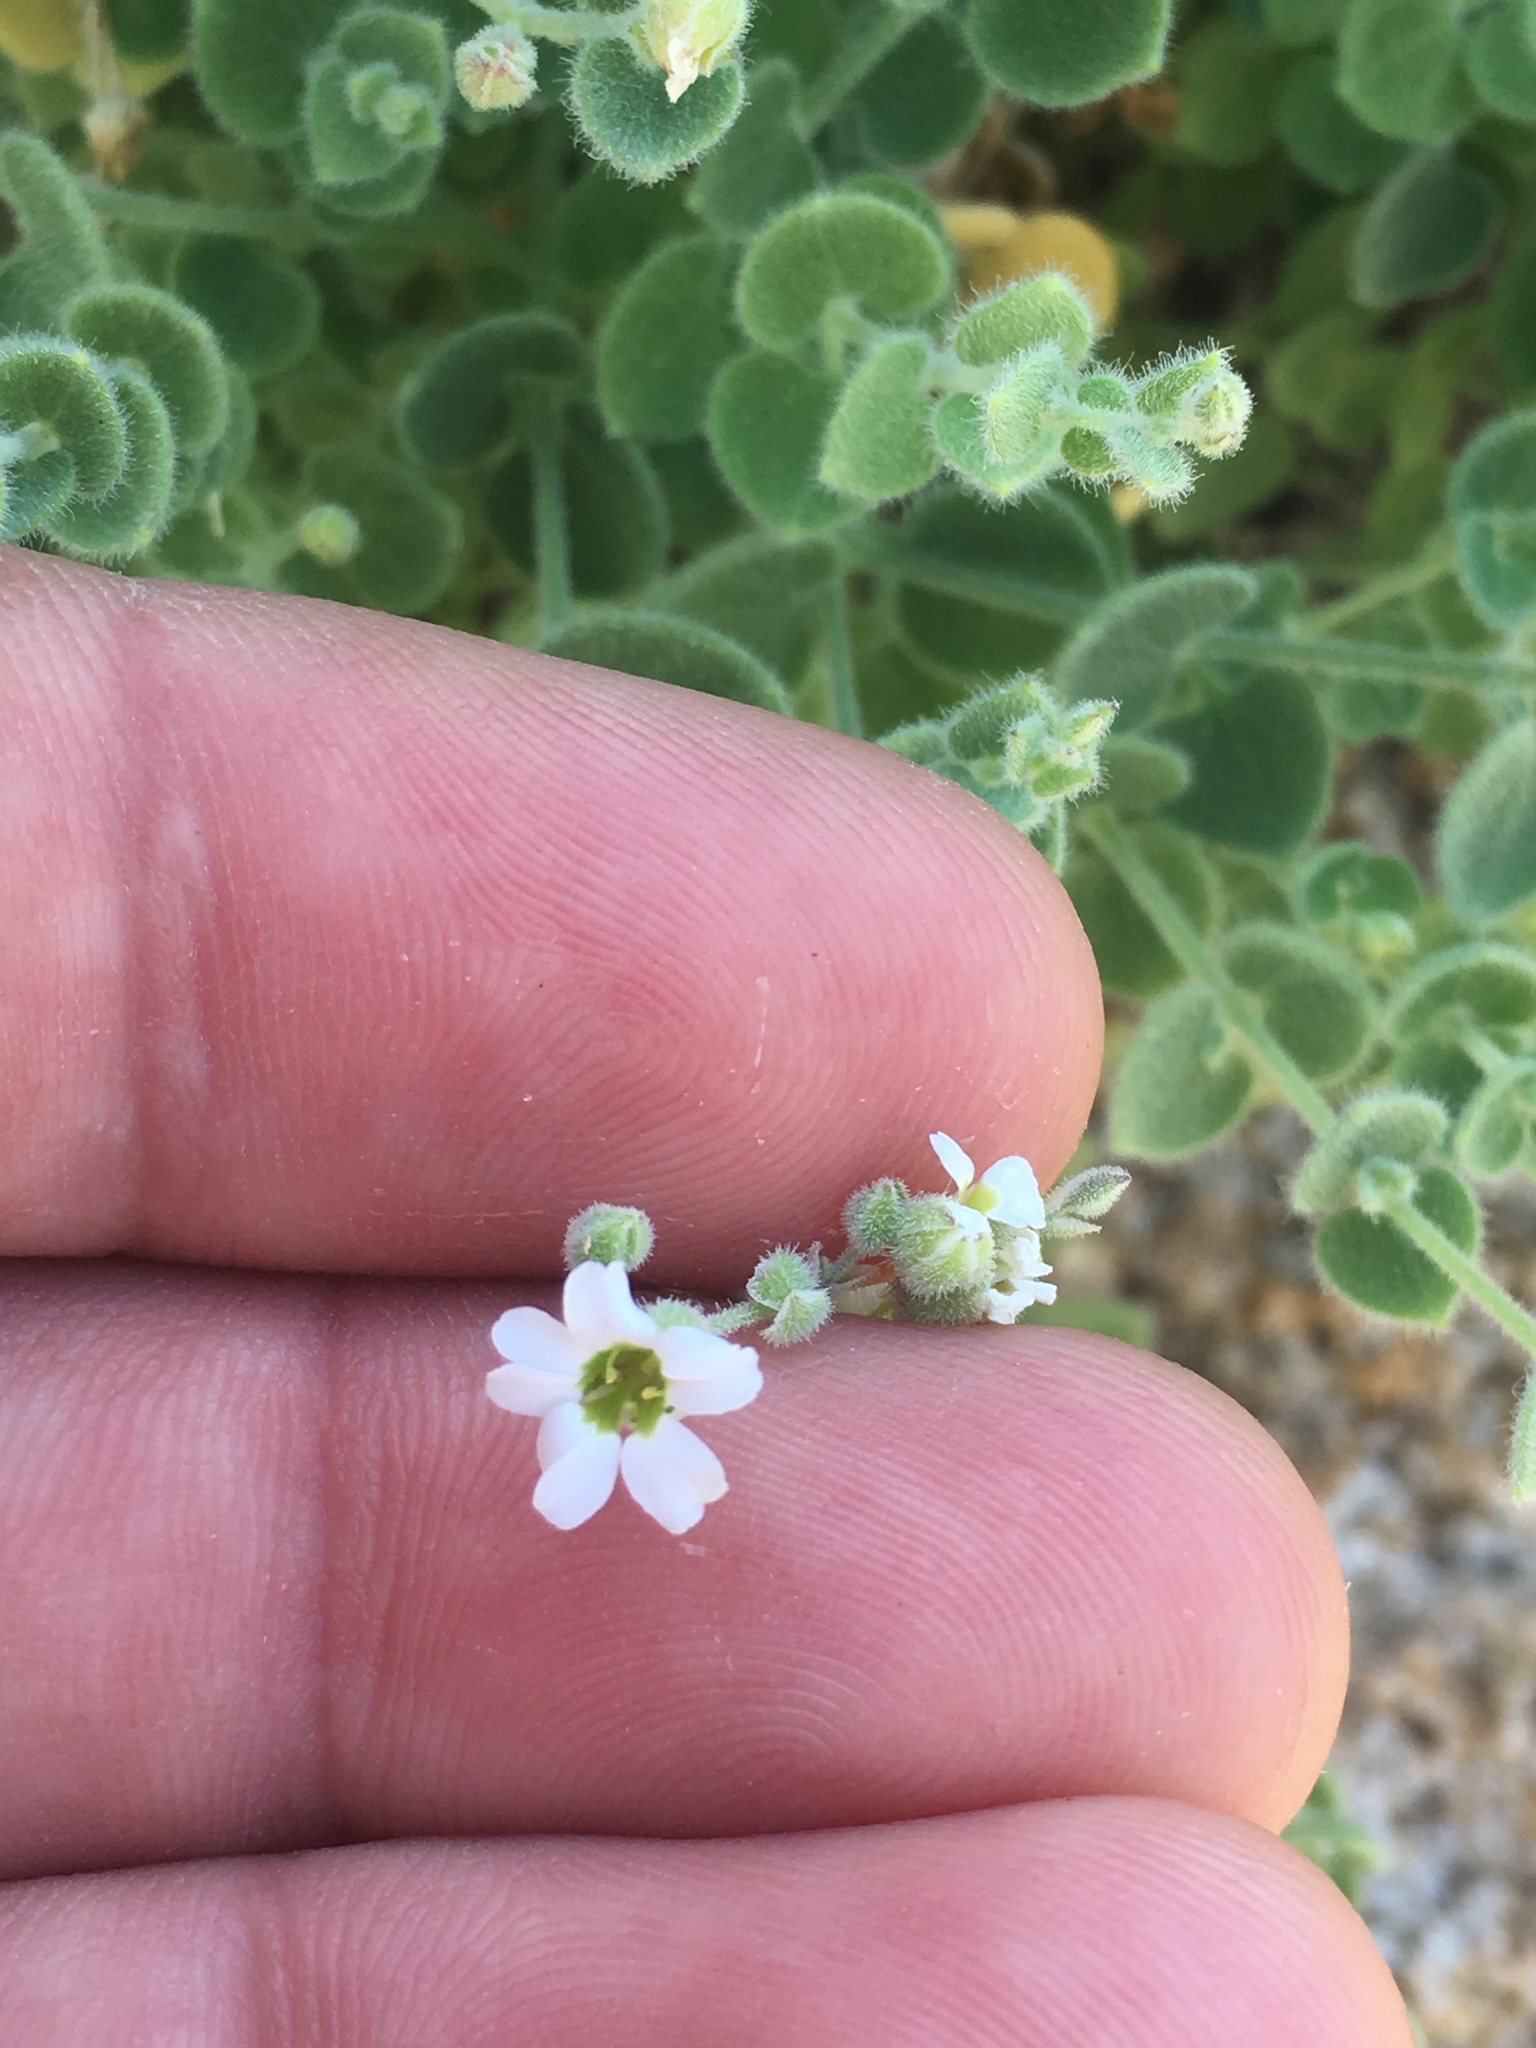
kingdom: Plantae
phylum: Tracheophyta
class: Magnoliopsida
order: Caryophyllales
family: Caryophyllaceae
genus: Drymaria
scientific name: Drymaria debilis
